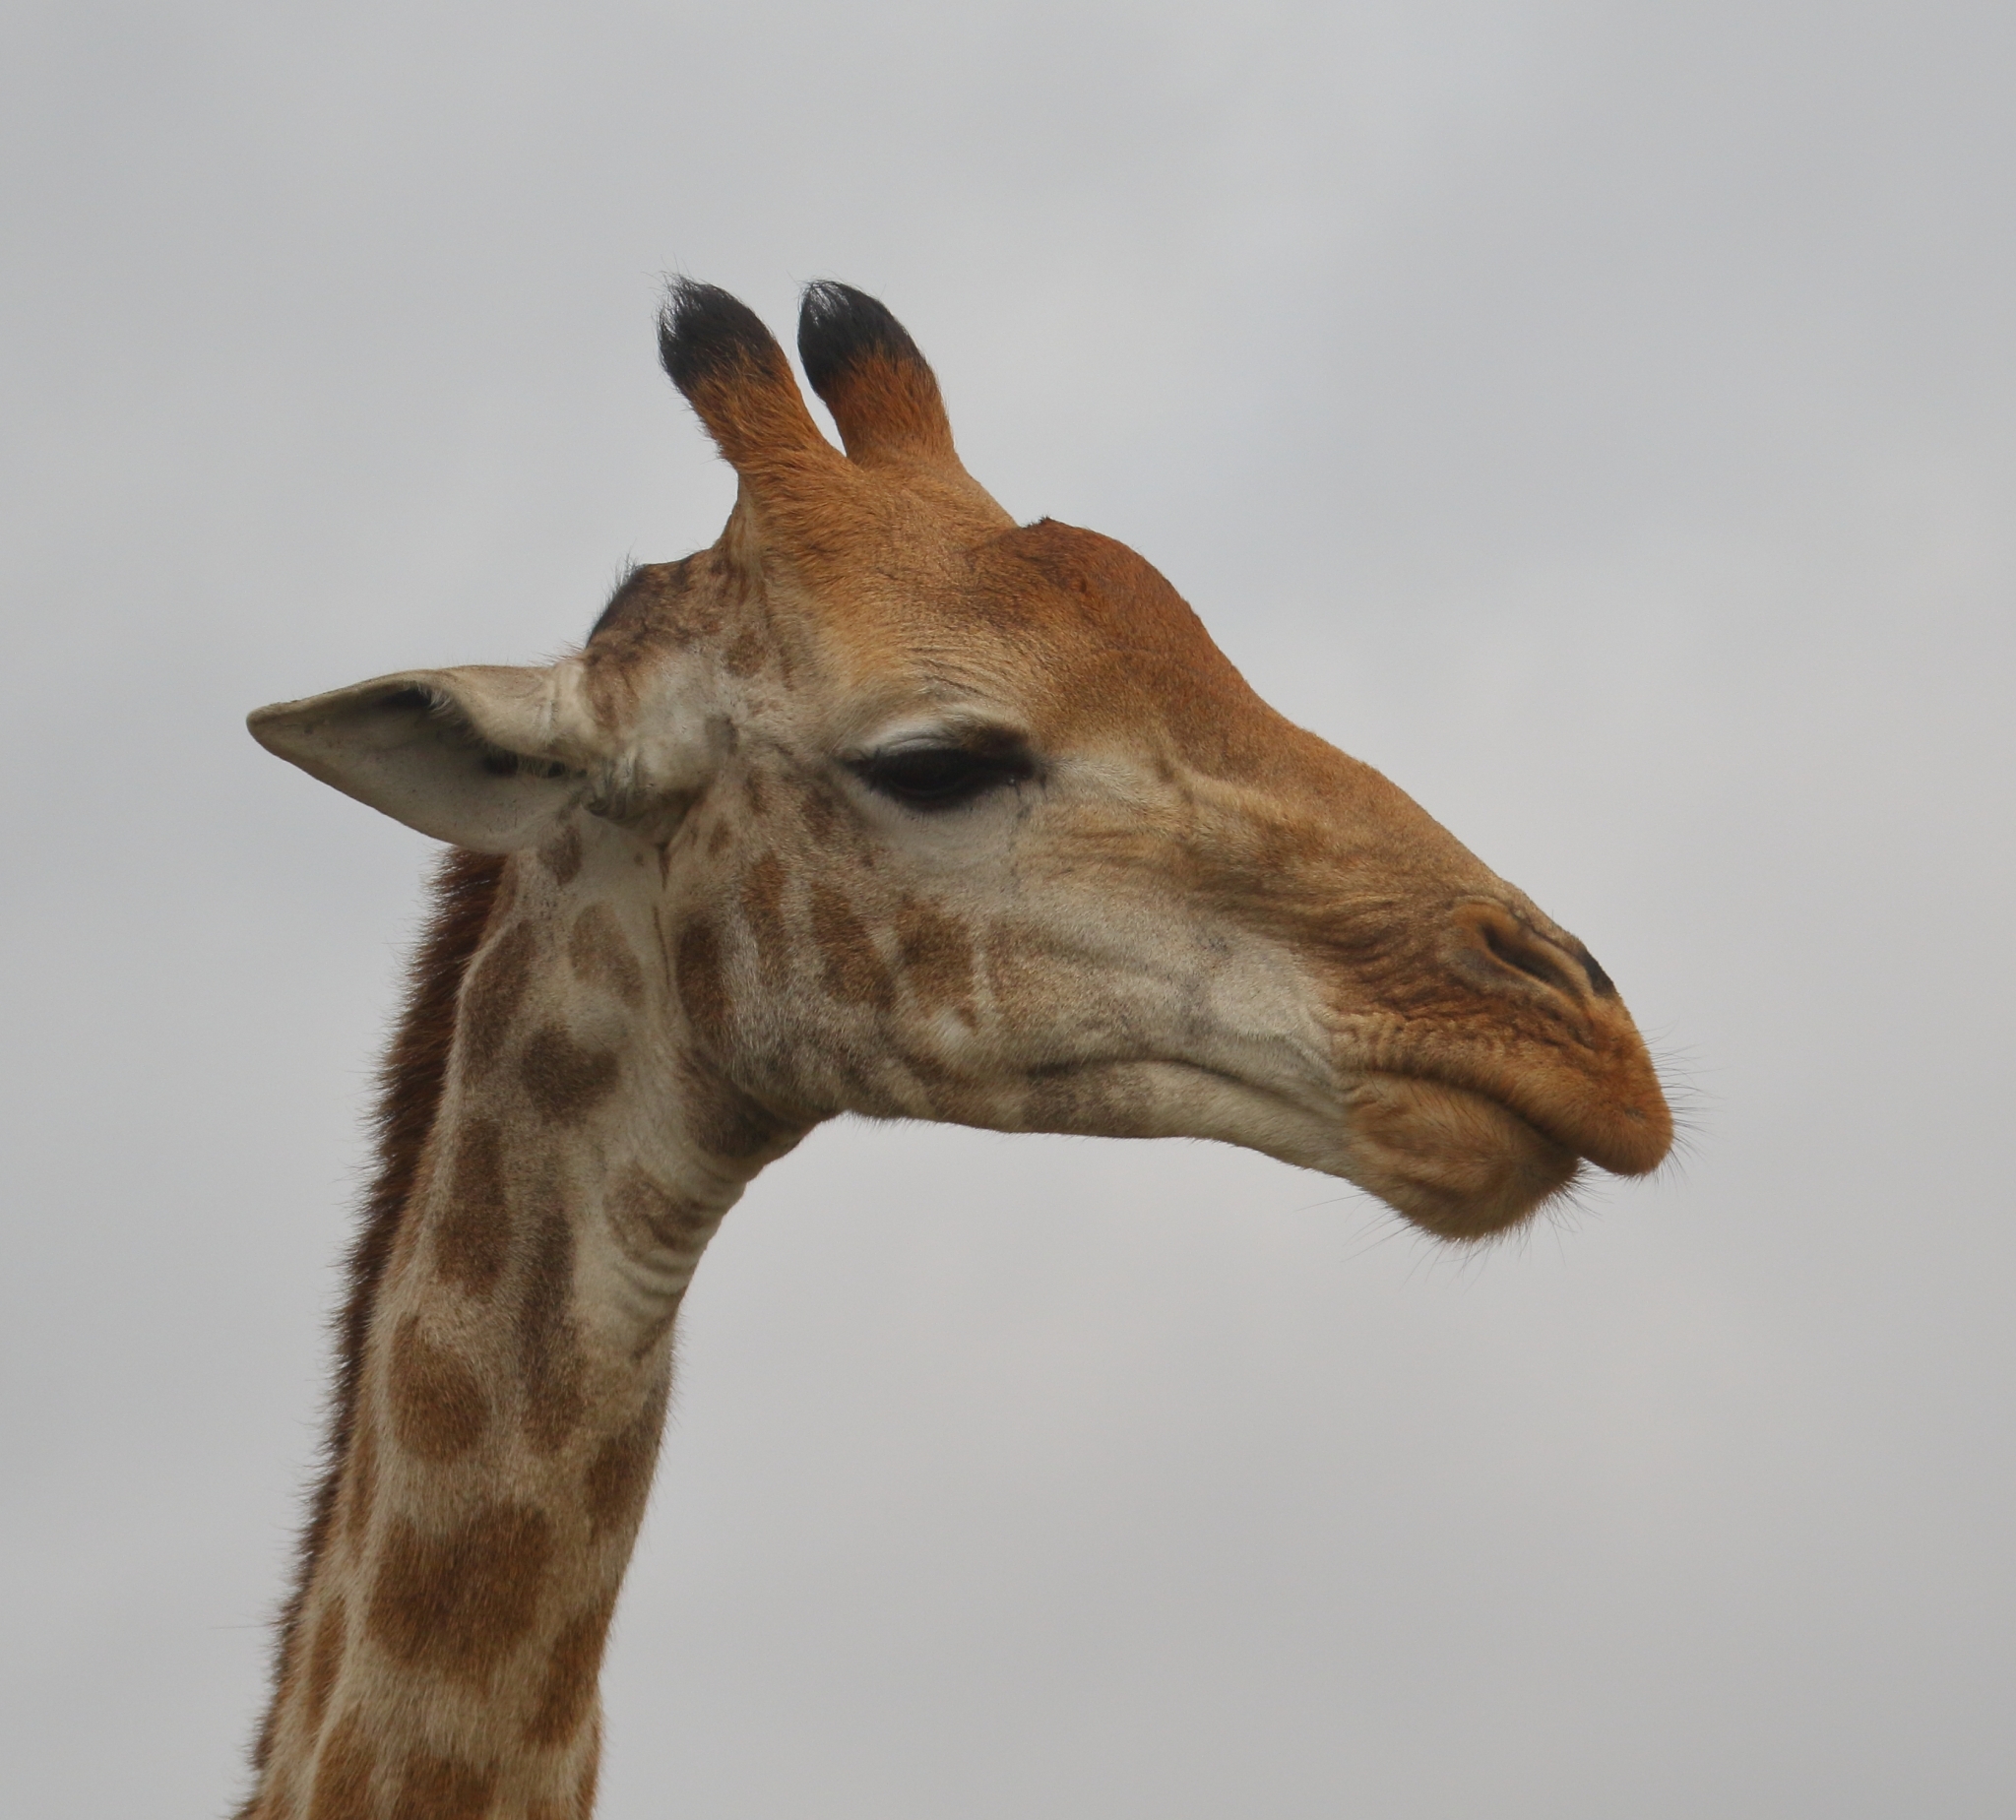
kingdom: Animalia
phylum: Chordata
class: Mammalia
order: Artiodactyla
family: Giraffidae
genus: Giraffa
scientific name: Giraffa giraffa
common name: Southern giraffe
